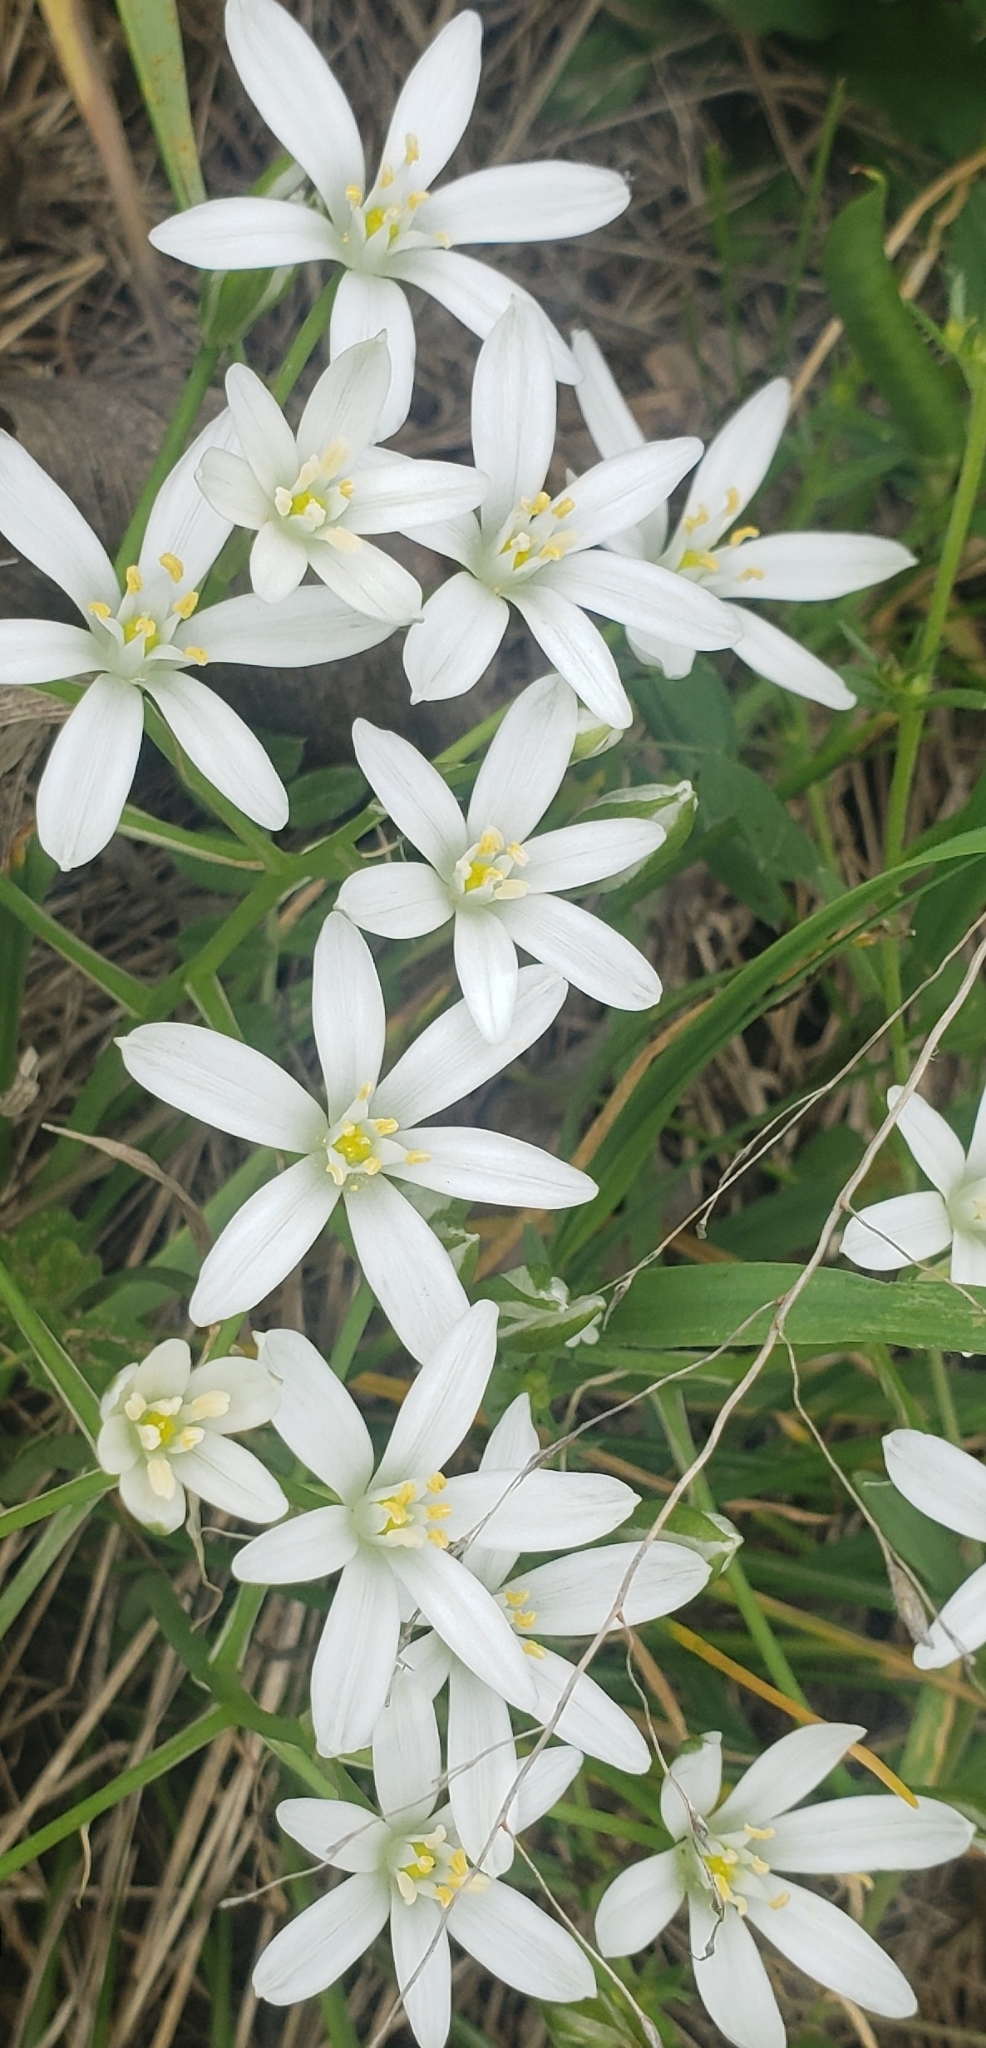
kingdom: Plantae
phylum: Tracheophyta
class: Liliopsida
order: Asparagales
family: Asparagaceae
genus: Ornithogalum
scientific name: Ornithogalum umbellatum
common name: Garden star-of-bethlehem
